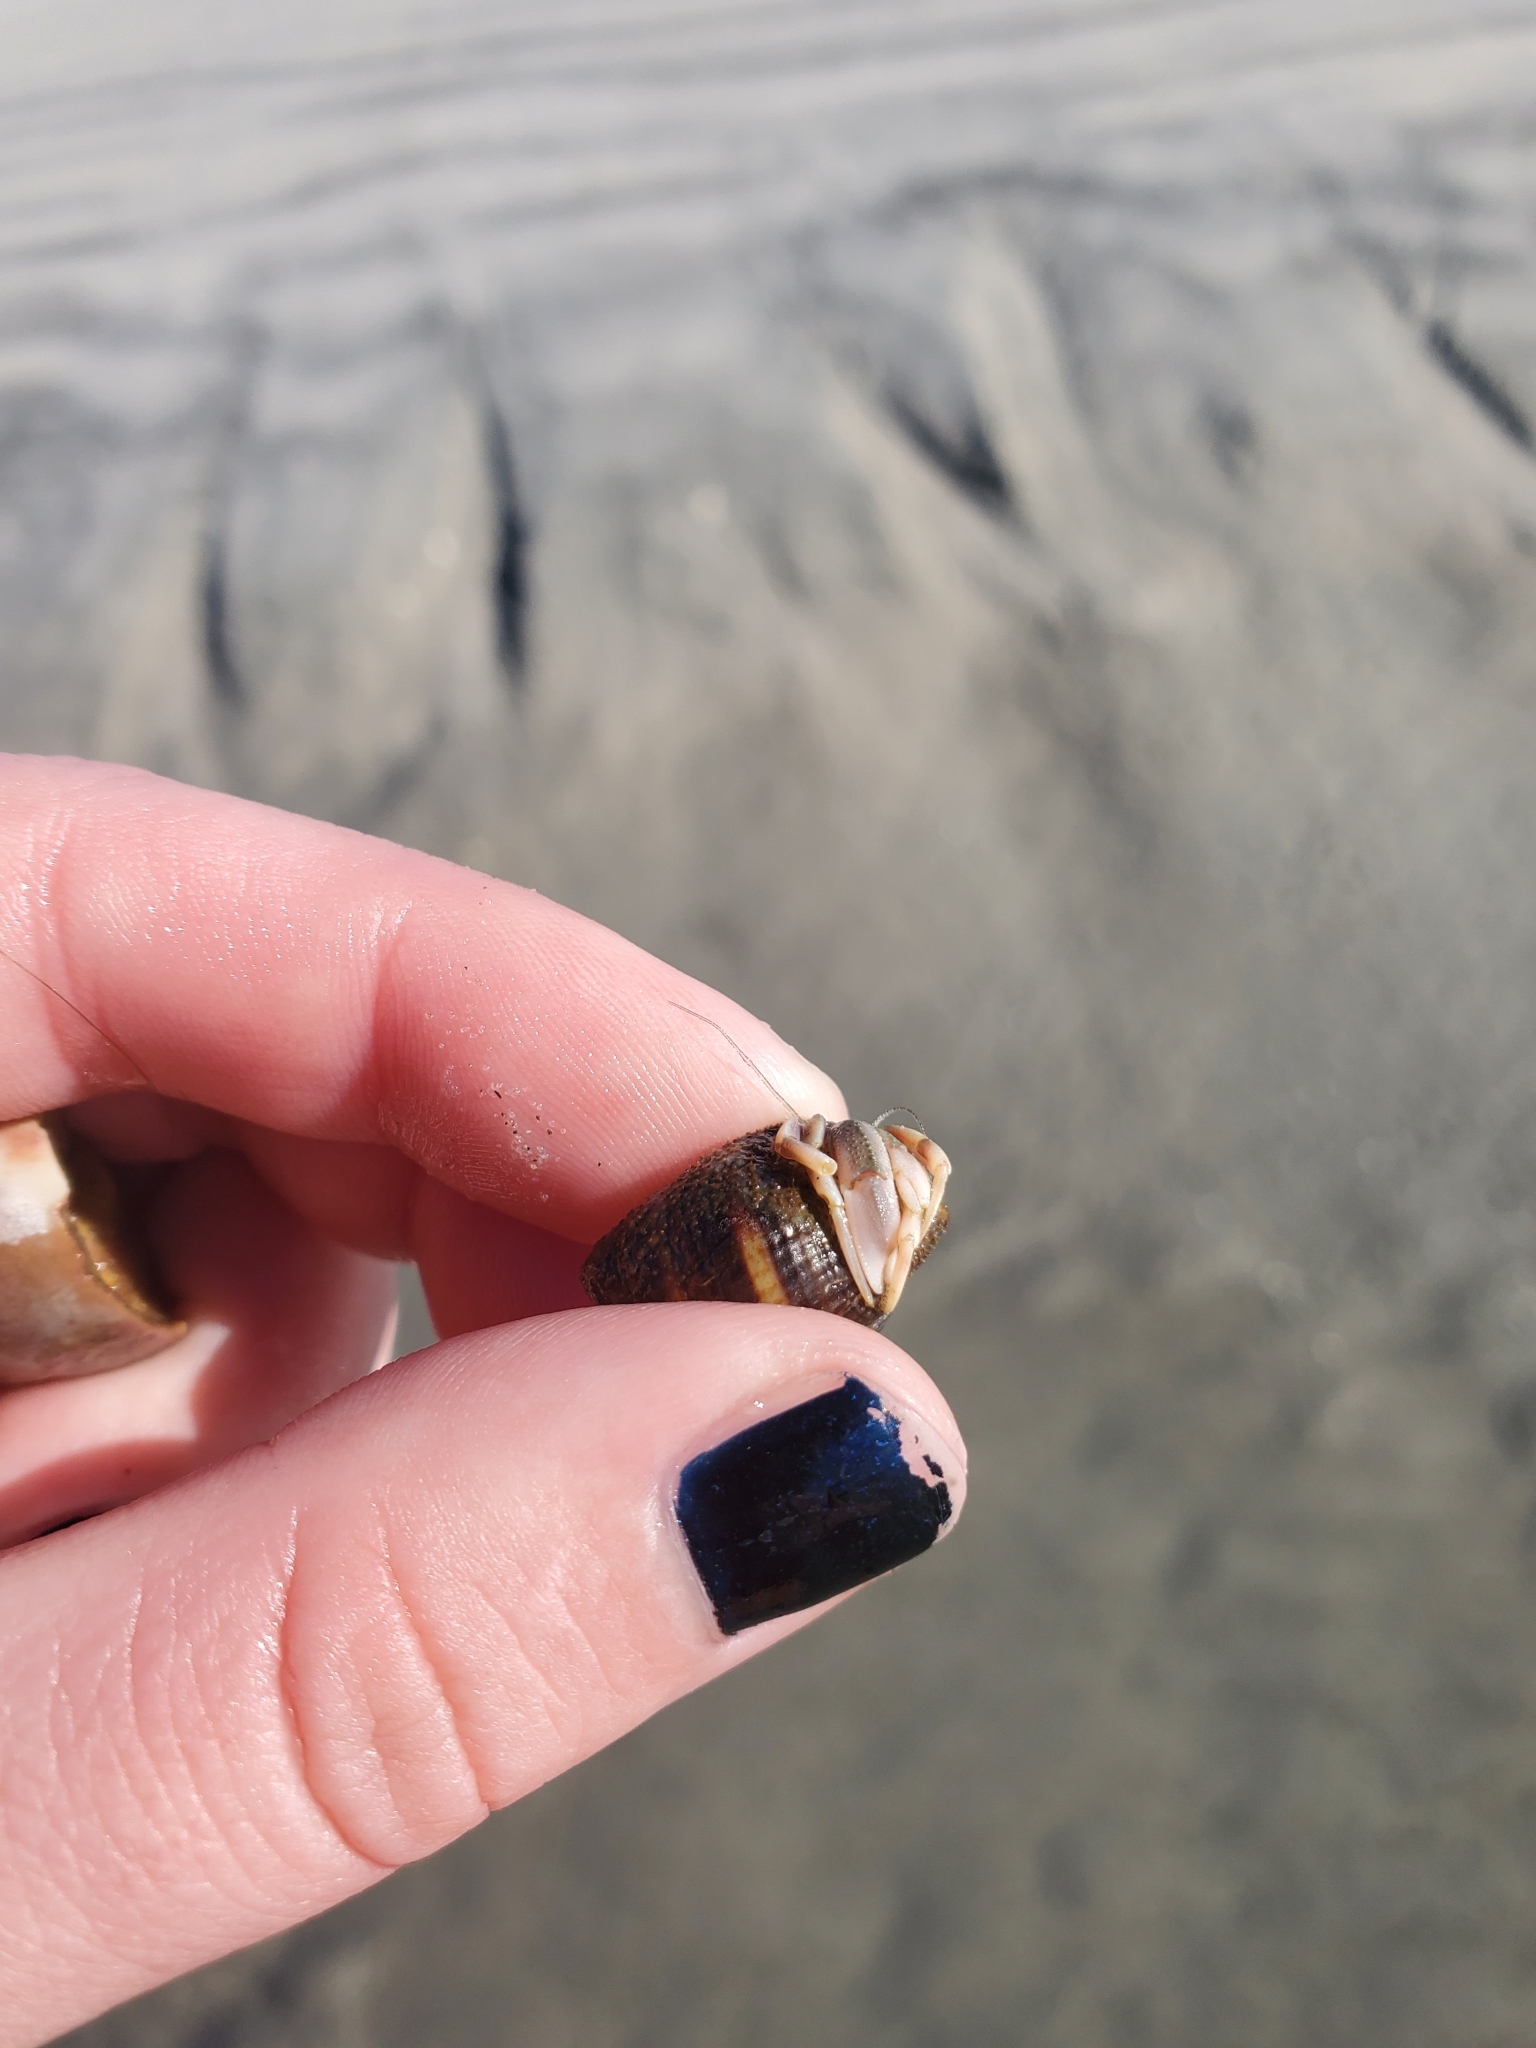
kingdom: Animalia
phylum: Arthropoda
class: Malacostraca
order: Decapoda
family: Paguridae
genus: Pagurus
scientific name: Pagurus longicarpus
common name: Long-armed hermit crab
